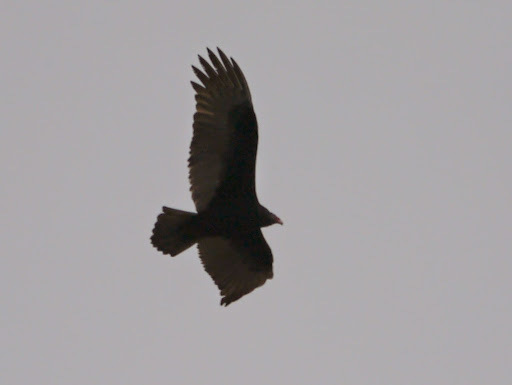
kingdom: Animalia
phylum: Chordata
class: Aves
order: Accipitriformes
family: Cathartidae
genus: Cathartes
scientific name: Cathartes aura
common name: Turkey vulture
